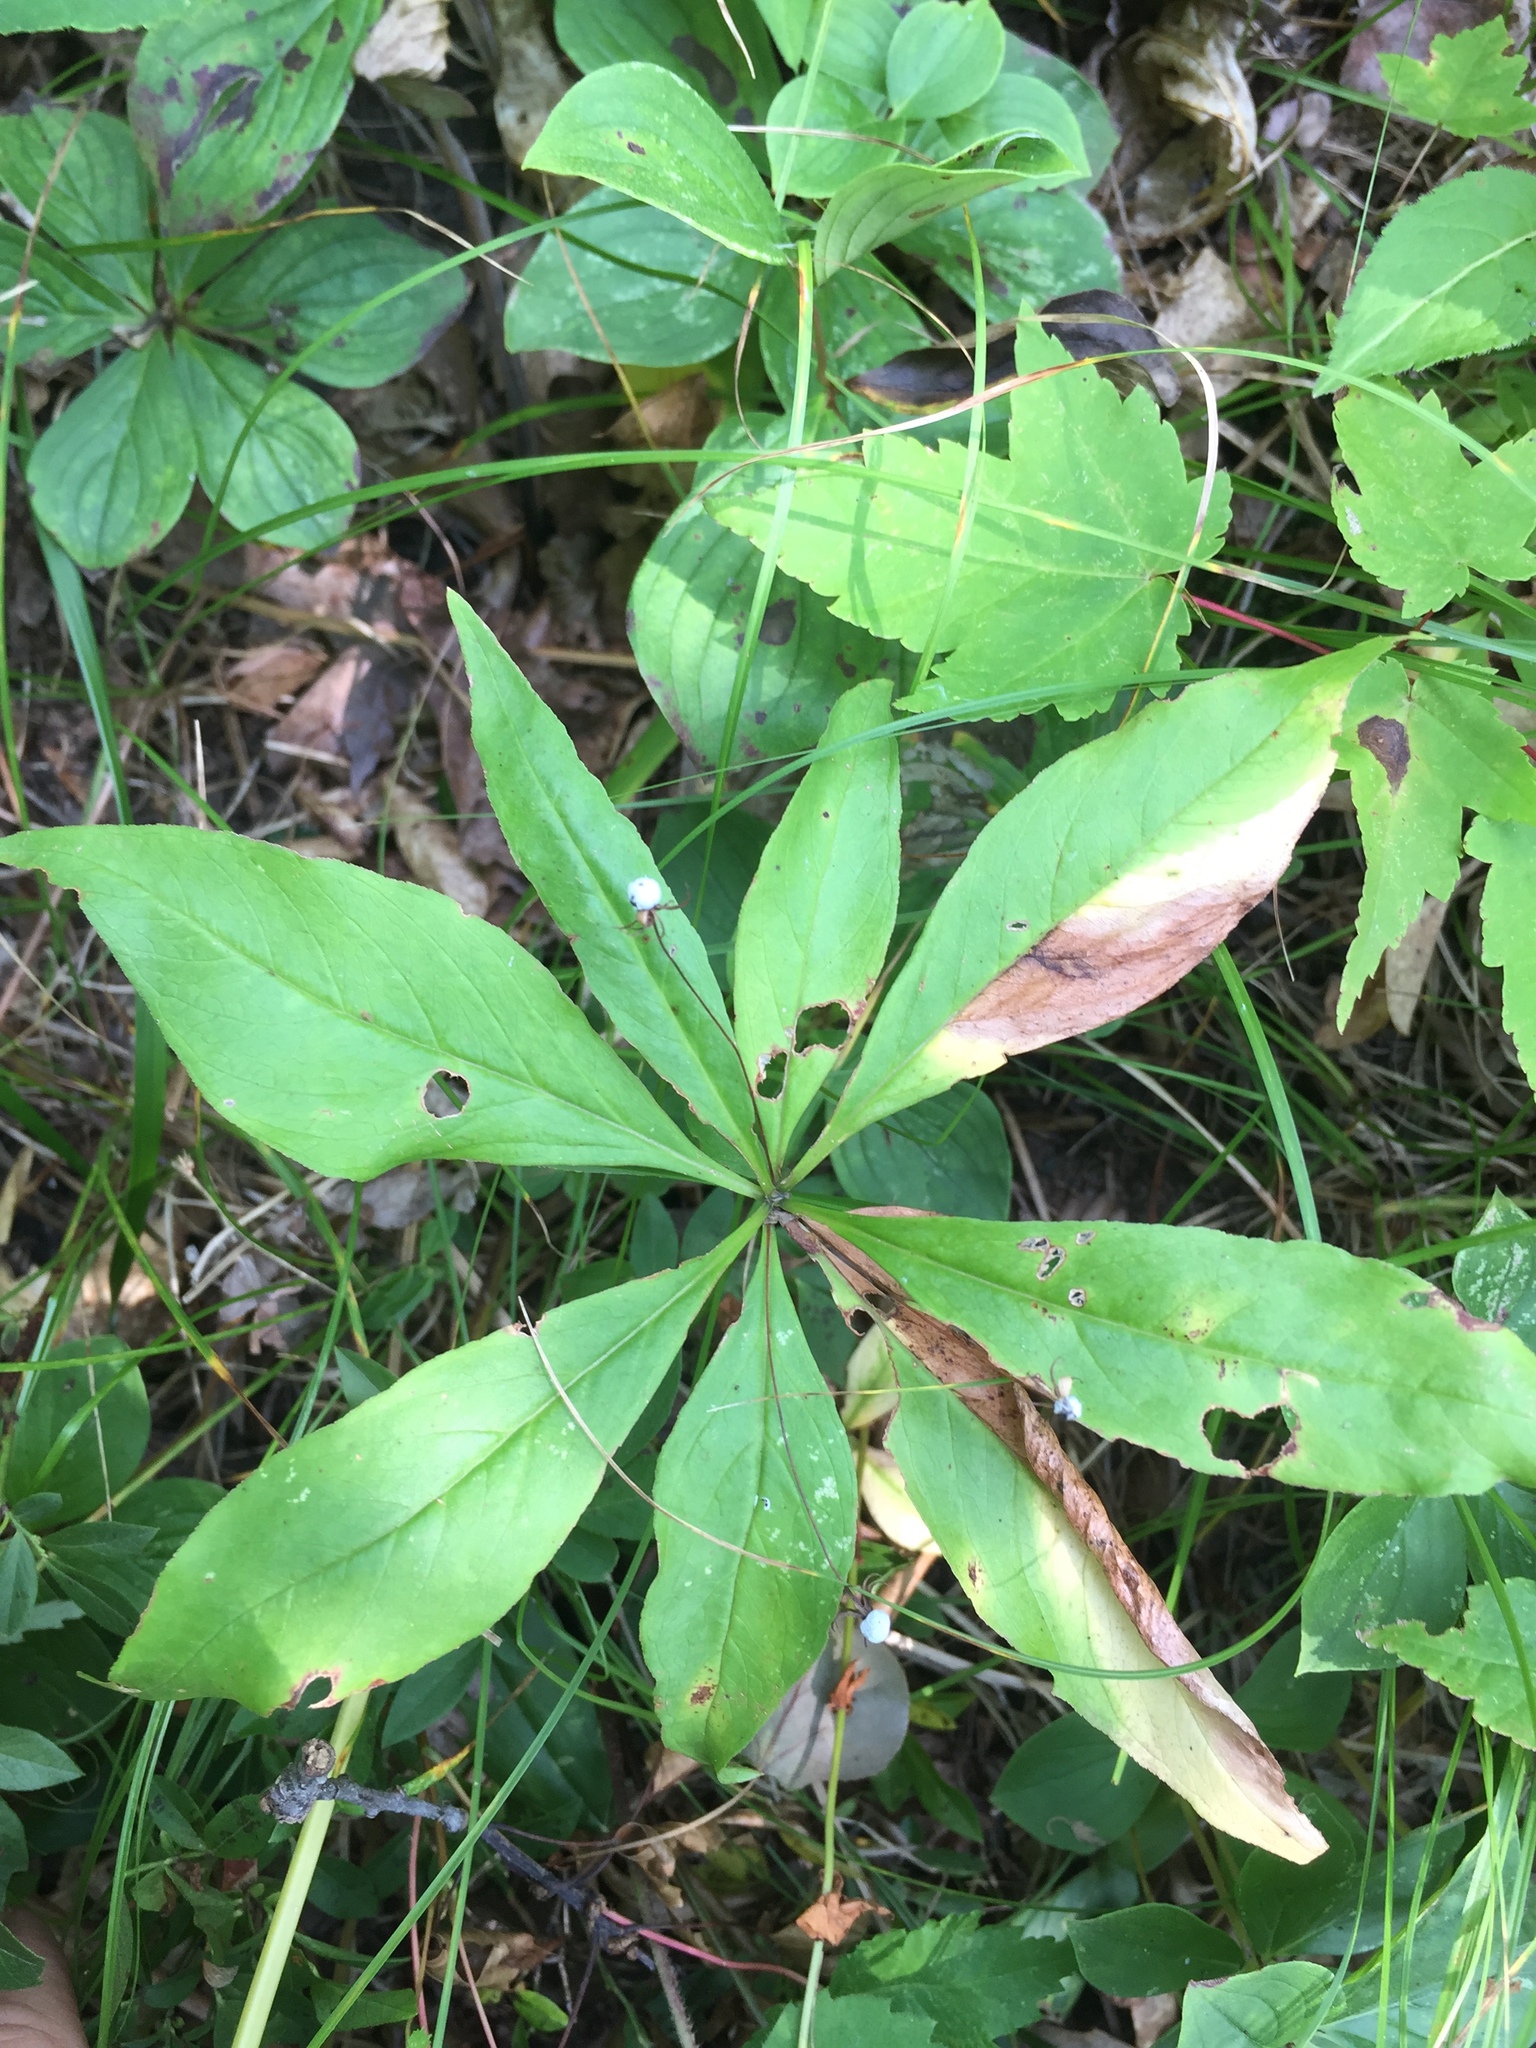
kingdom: Plantae
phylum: Tracheophyta
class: Magnoliopsida
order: Ericales
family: Primulaceae
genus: Lysimachia
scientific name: Lysimachia borealis
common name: American starflower
